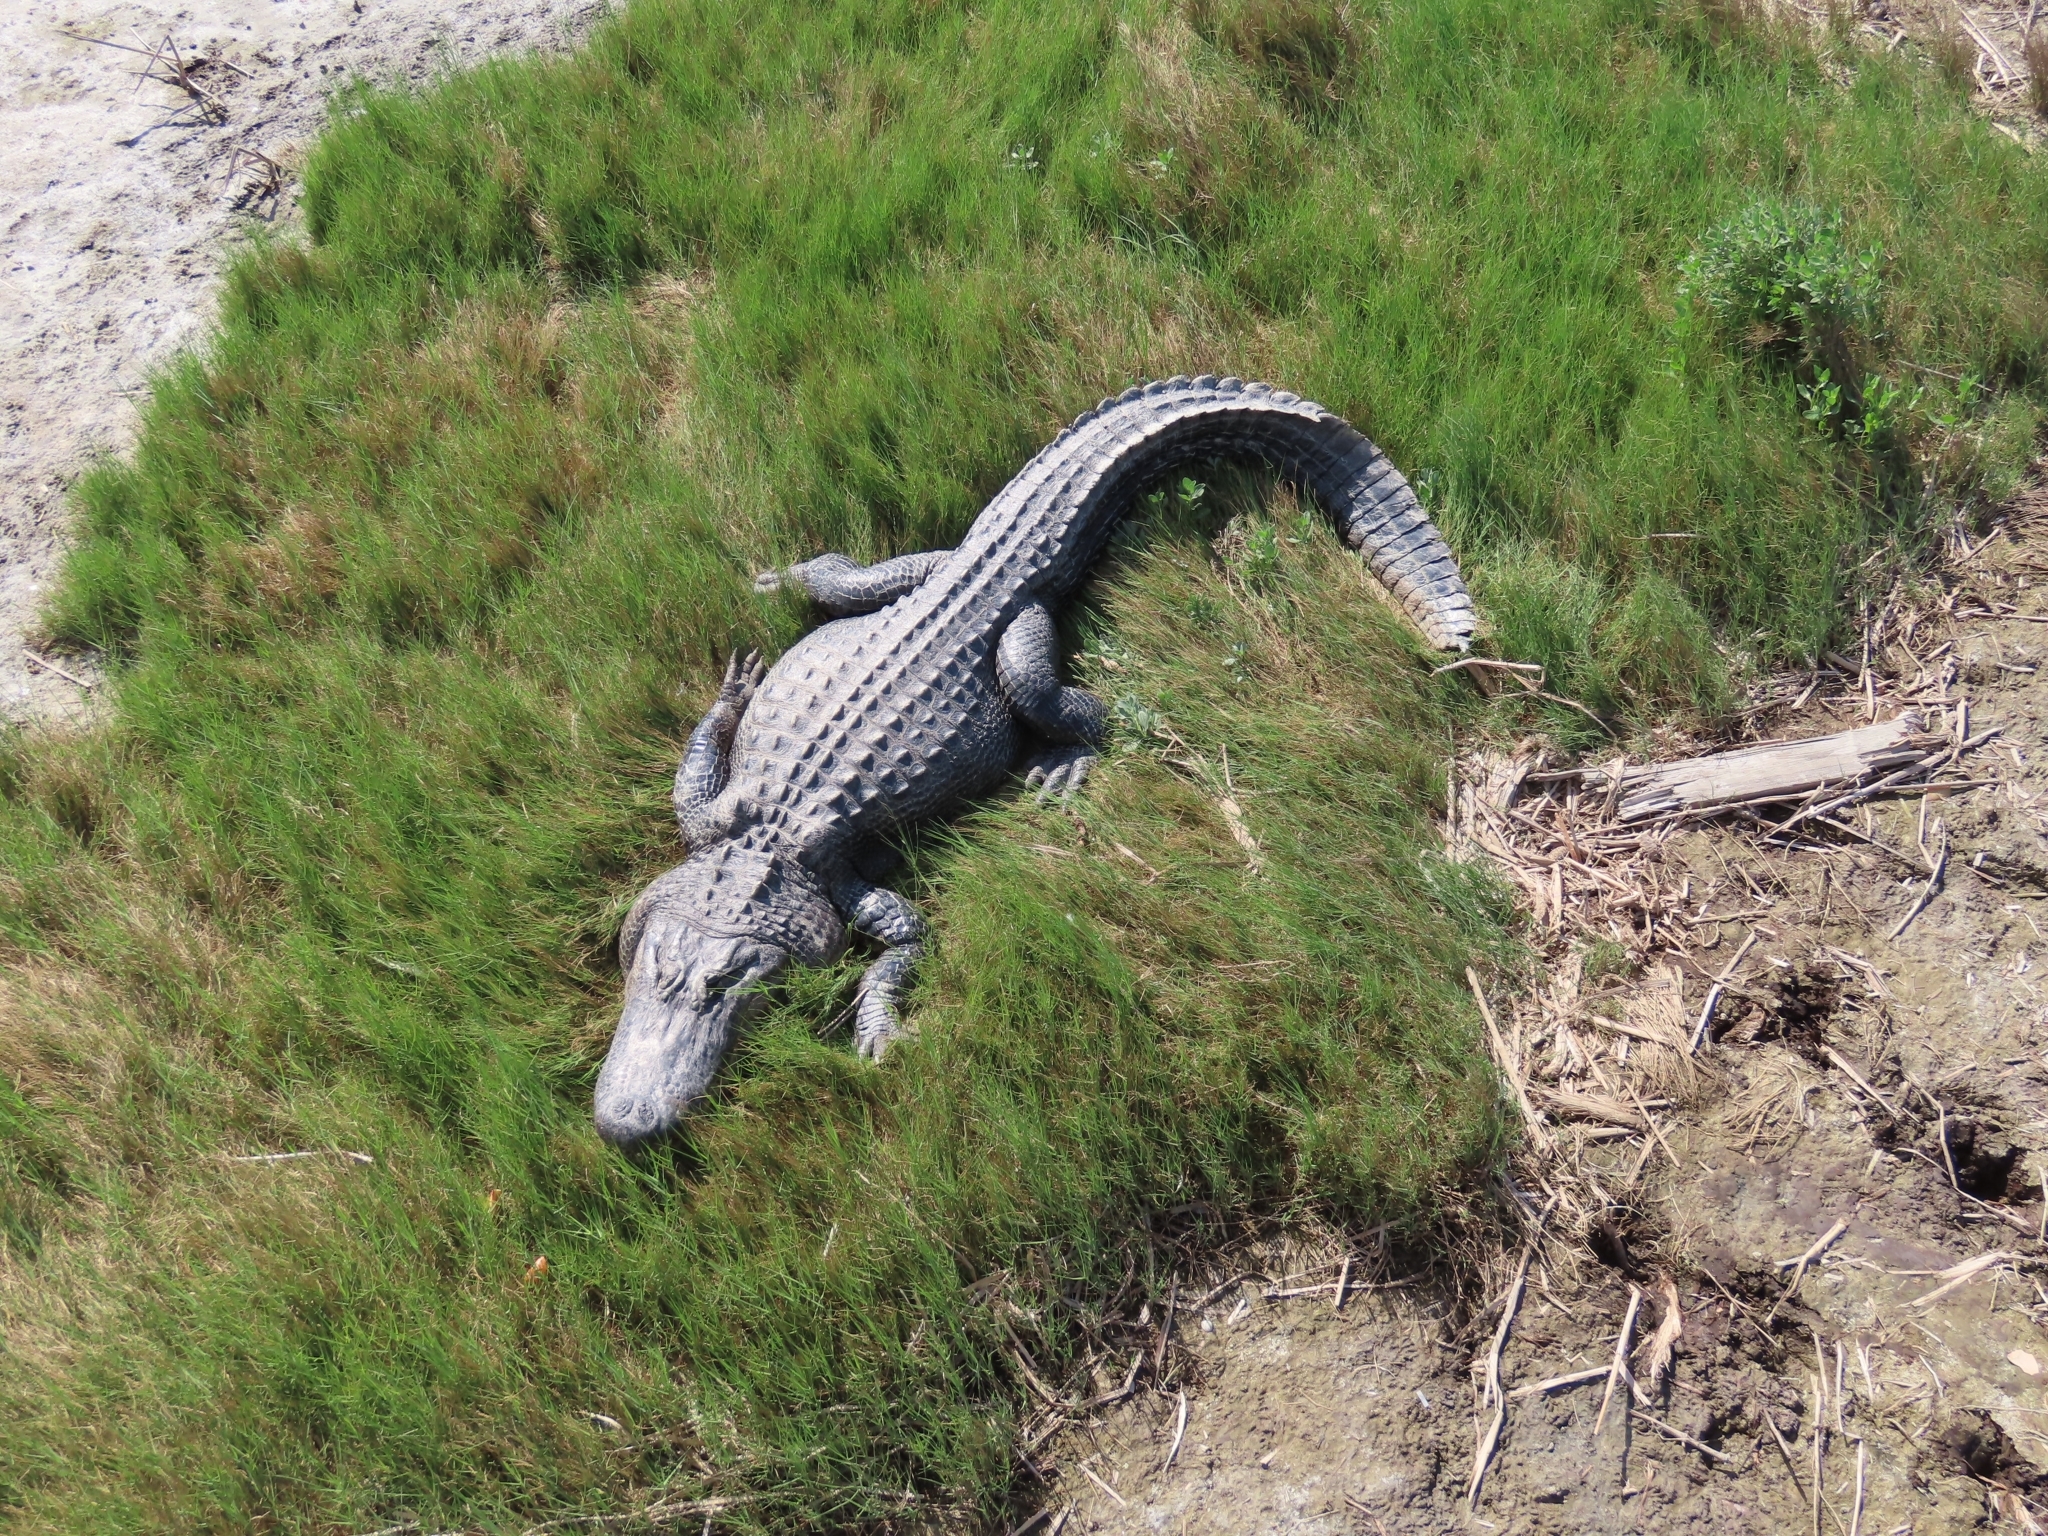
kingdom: Animalia
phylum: Chordata
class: Crocodylia
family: Alligatoridae
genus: Alligator
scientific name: Alligator mississippiensis
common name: American alligator
